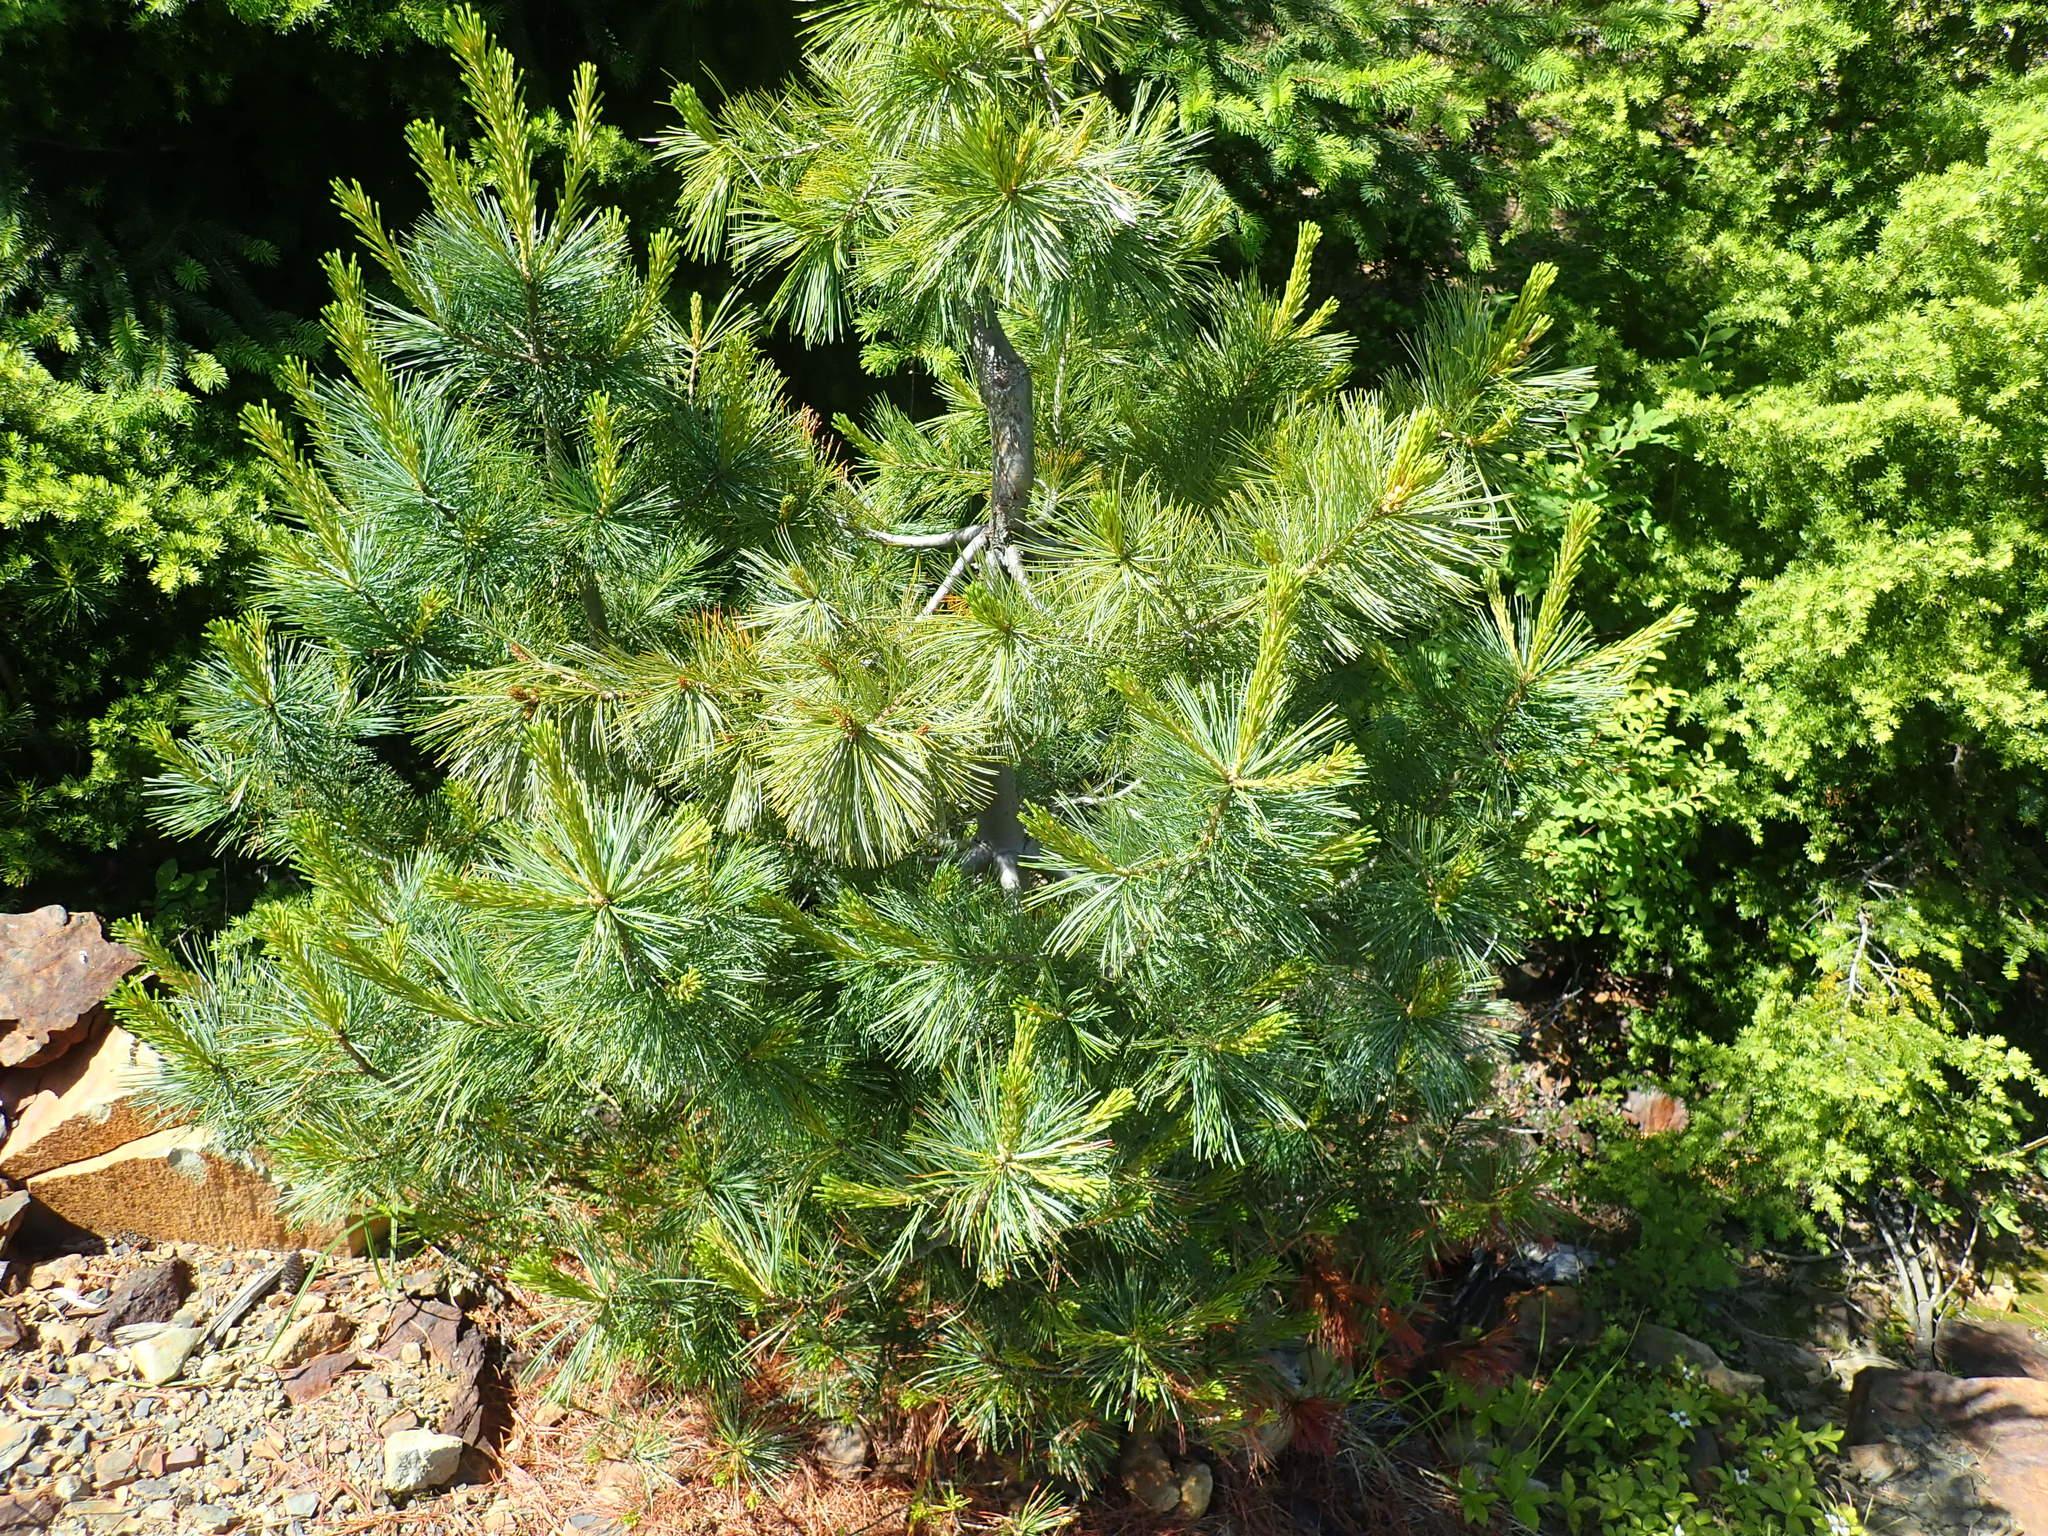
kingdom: Plantae
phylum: Tracheophyta
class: Pinopsida
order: Pinales
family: Pinaceae
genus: Pinus
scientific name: Pinus monticola
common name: Western white pine
